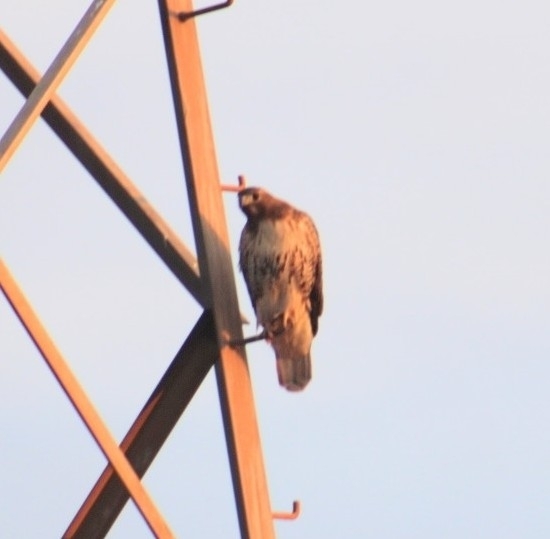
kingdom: Animalia
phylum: Chordata
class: Aves
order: Accipitriformes
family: Accipitridae
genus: Buteo
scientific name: Buteo jamaicensis
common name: Red-tailed hawk
